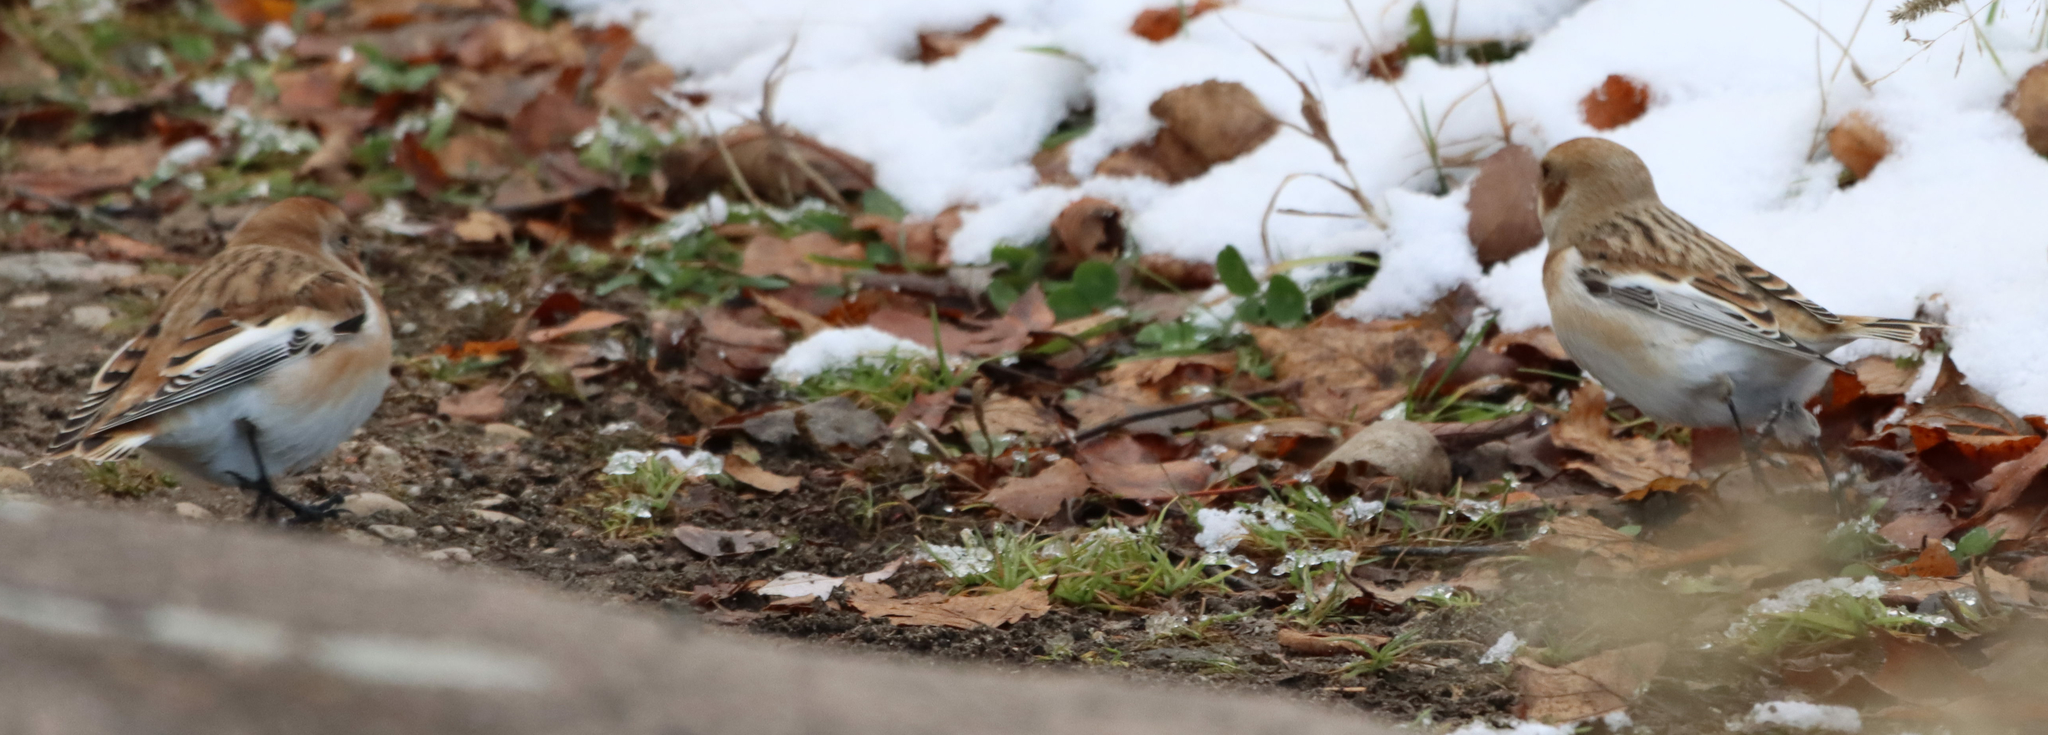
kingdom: Animalia
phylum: Chordata
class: Aves
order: Passeriformes
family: Calcariidae
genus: Plectrophenax
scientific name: Plectrophenax nivalis
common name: Snow bunting
